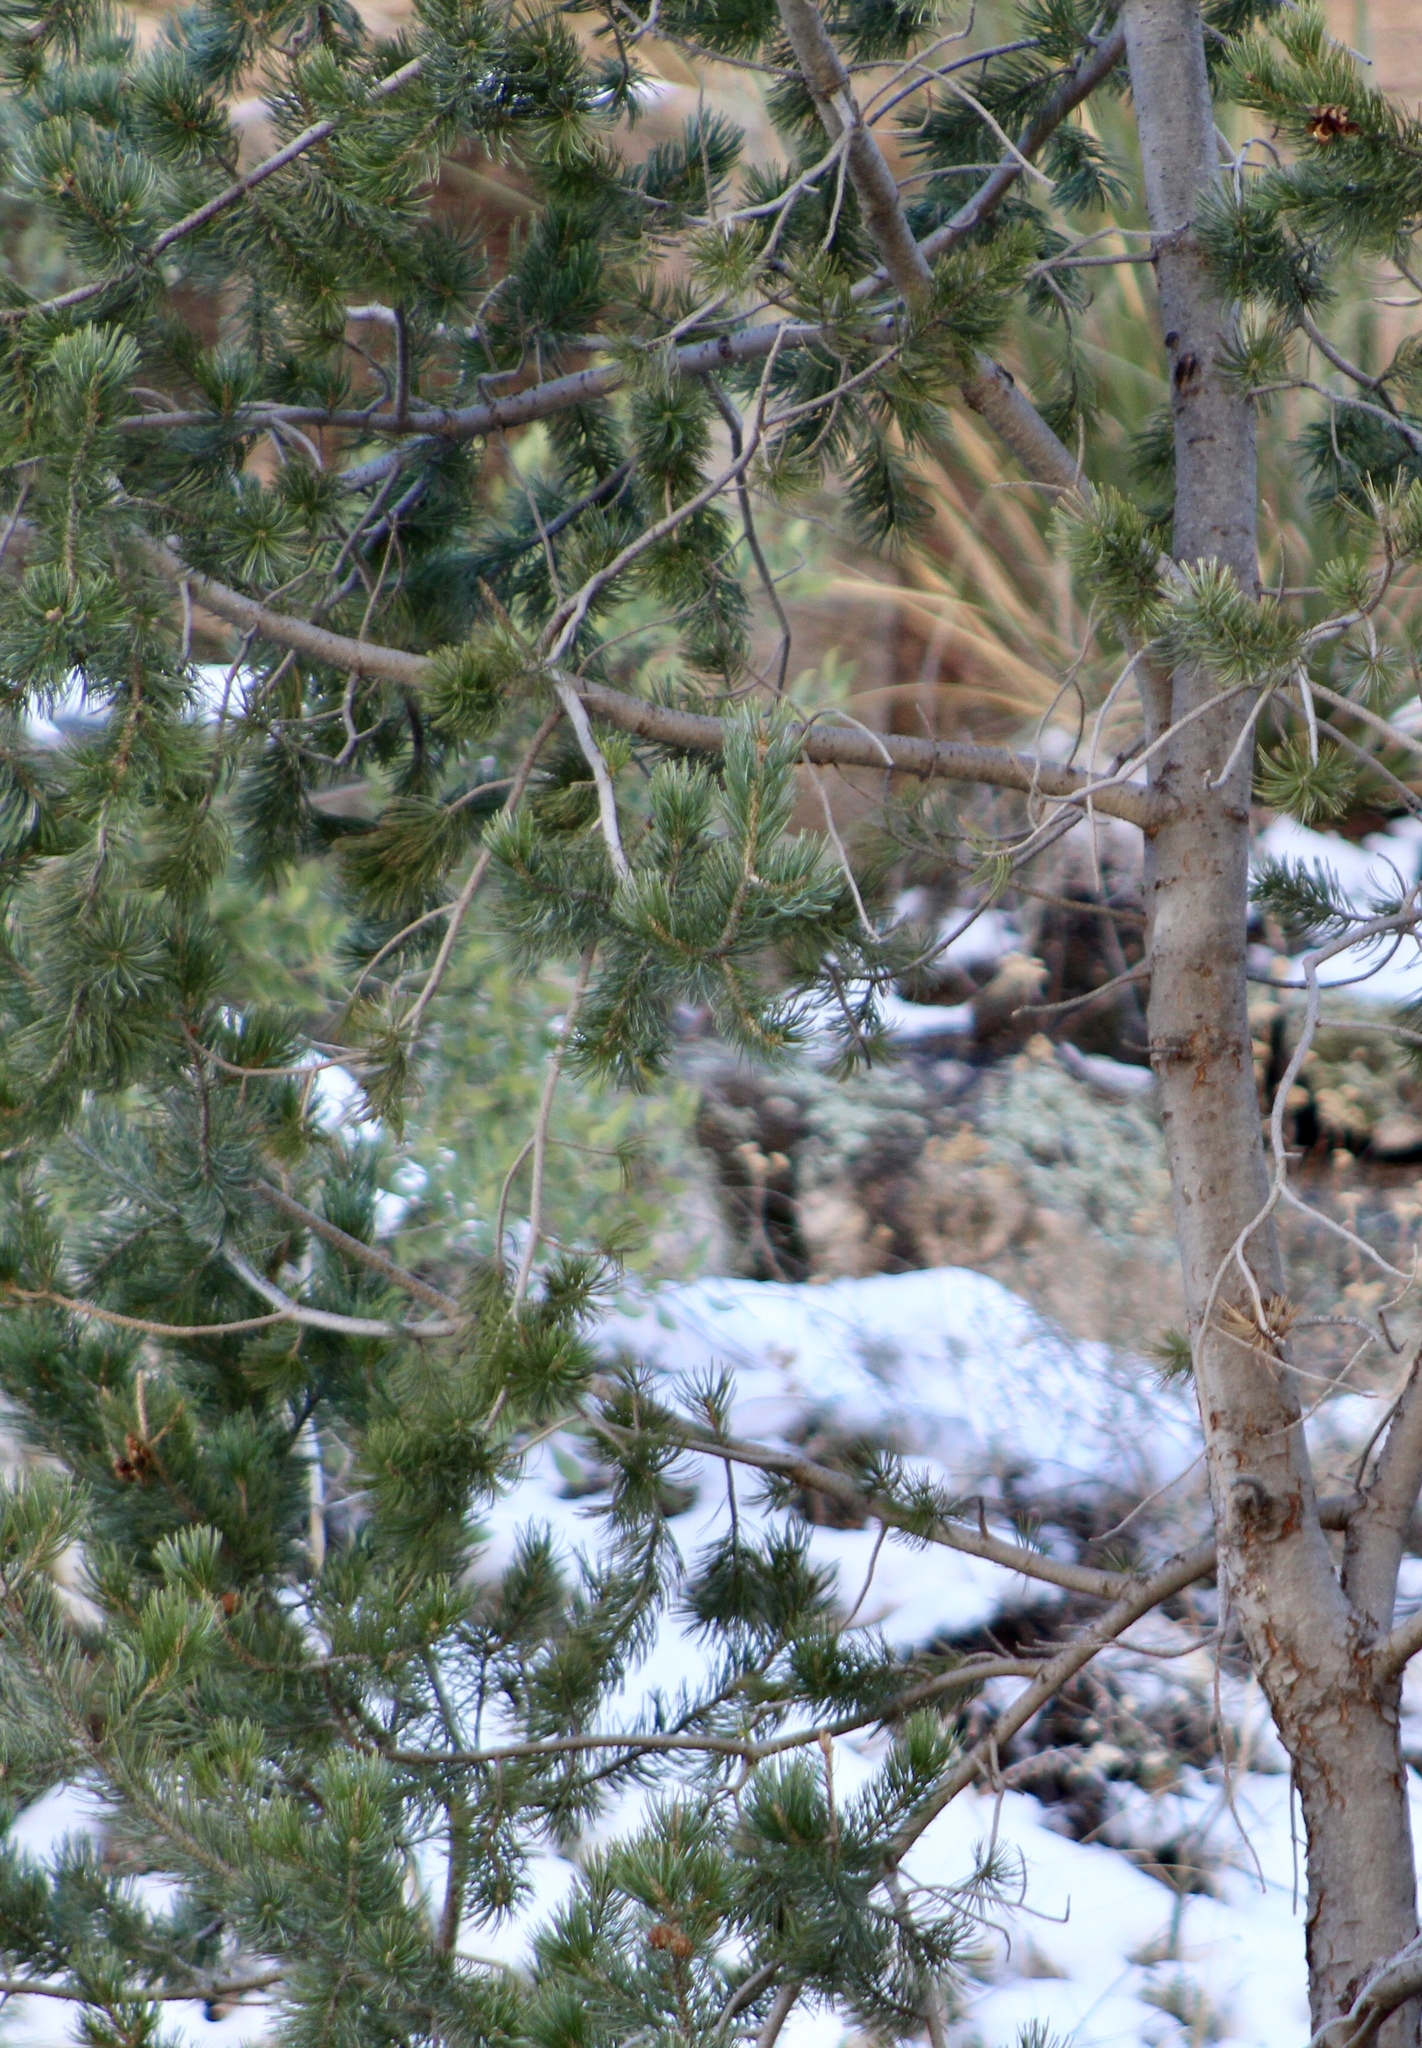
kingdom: Plantae
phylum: Tracheophyta
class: Pinopsida
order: Pinales
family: Pinaceae
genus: Pinus
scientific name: Pinus discolor
